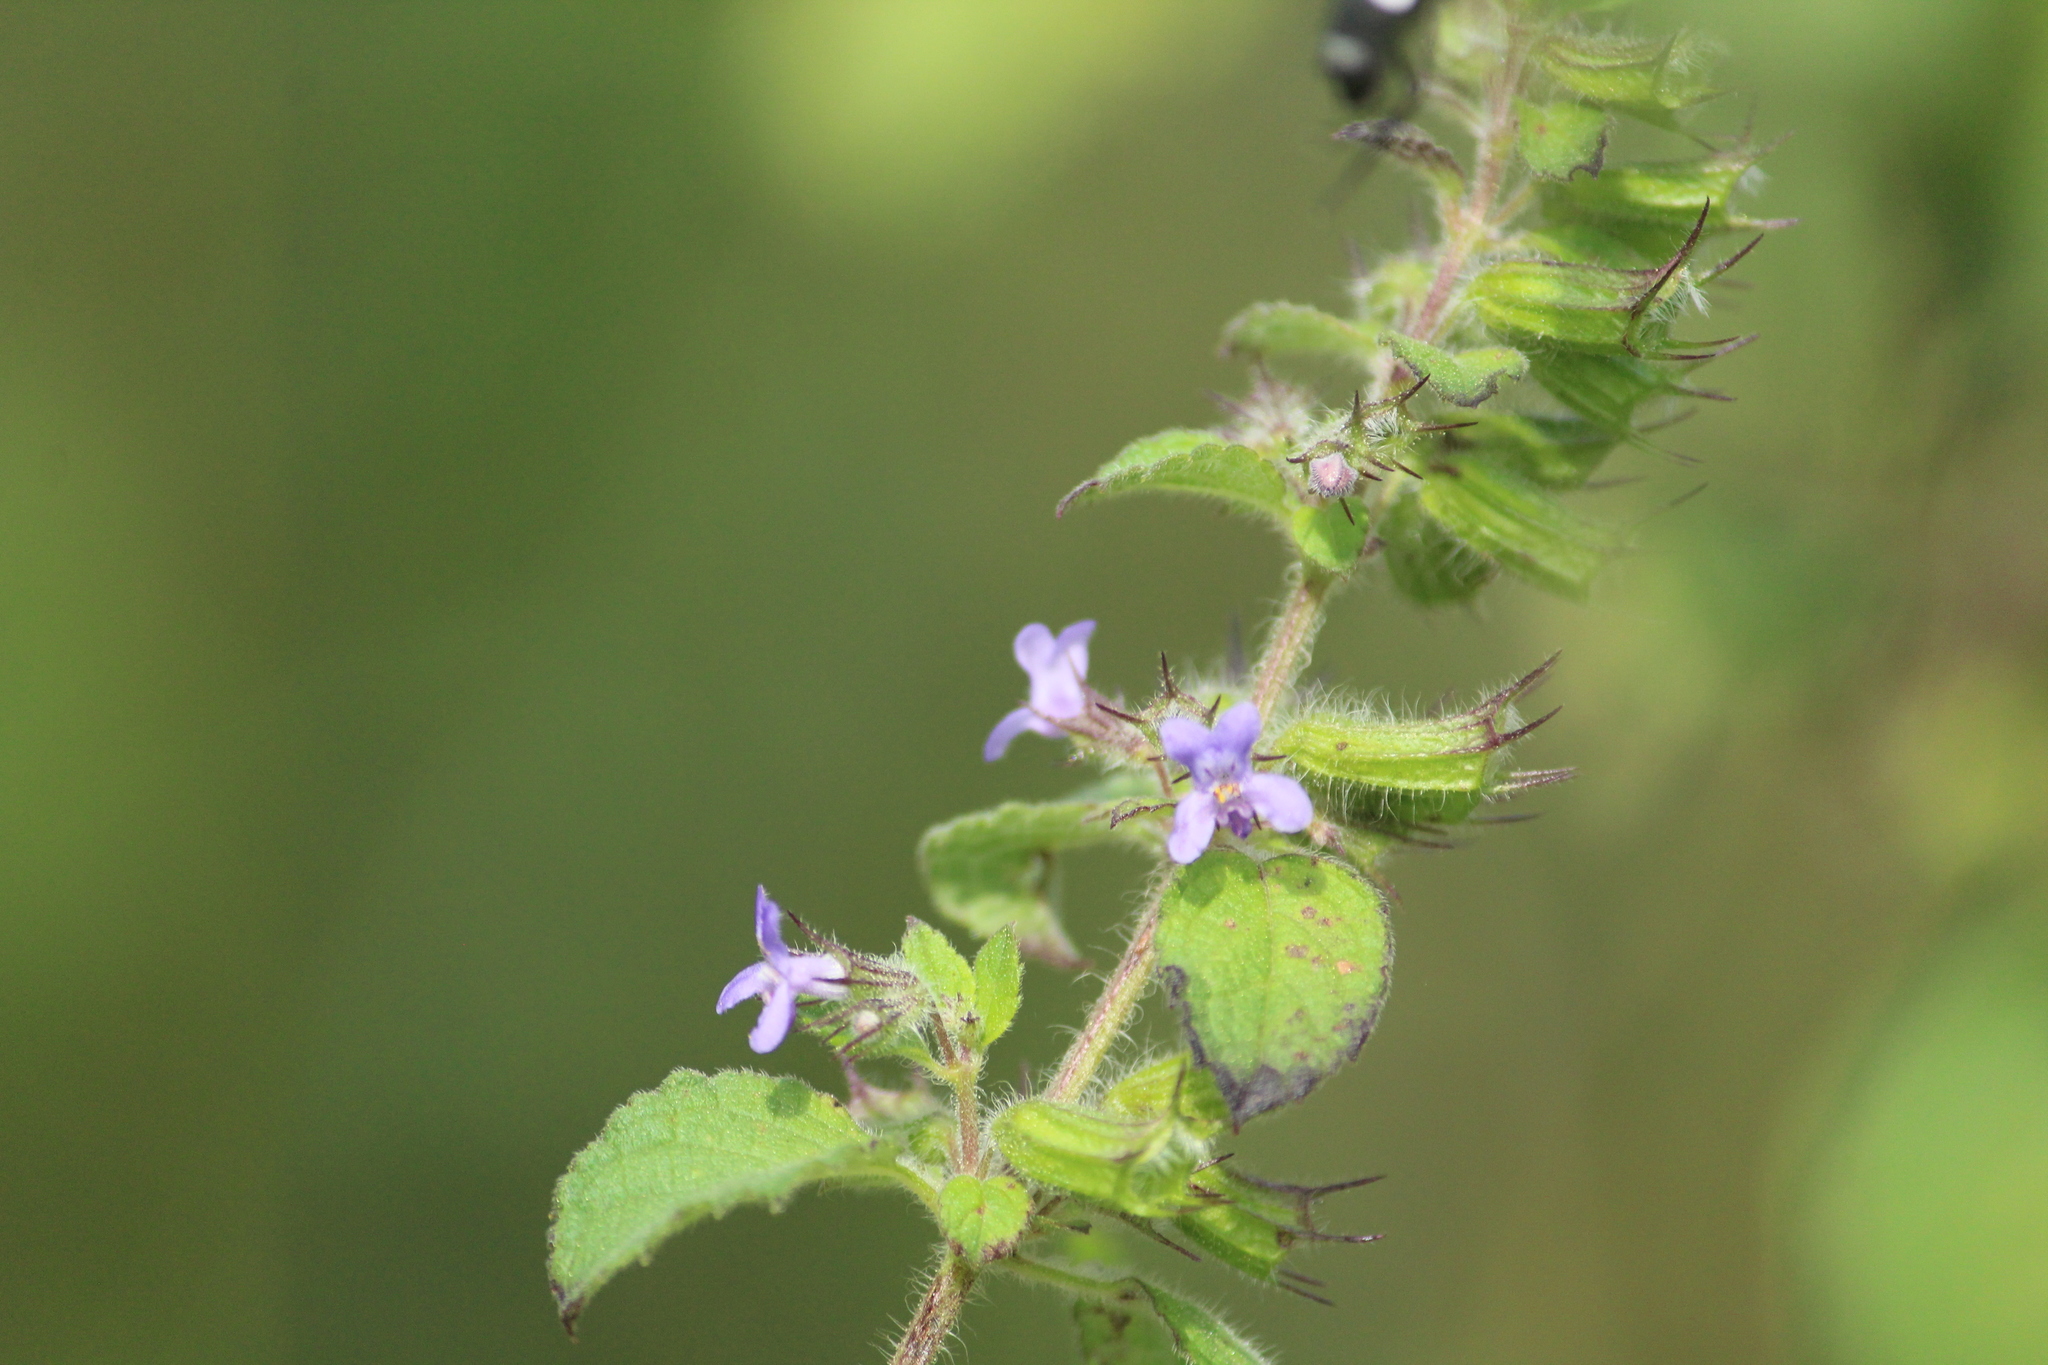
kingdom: Plantae
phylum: Tracheophyta
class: Magnoliopsida
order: Lamiales
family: Lamiaceae
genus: Mesosphaerum
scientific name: Mesosphaerum suaveolens
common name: Pignut
